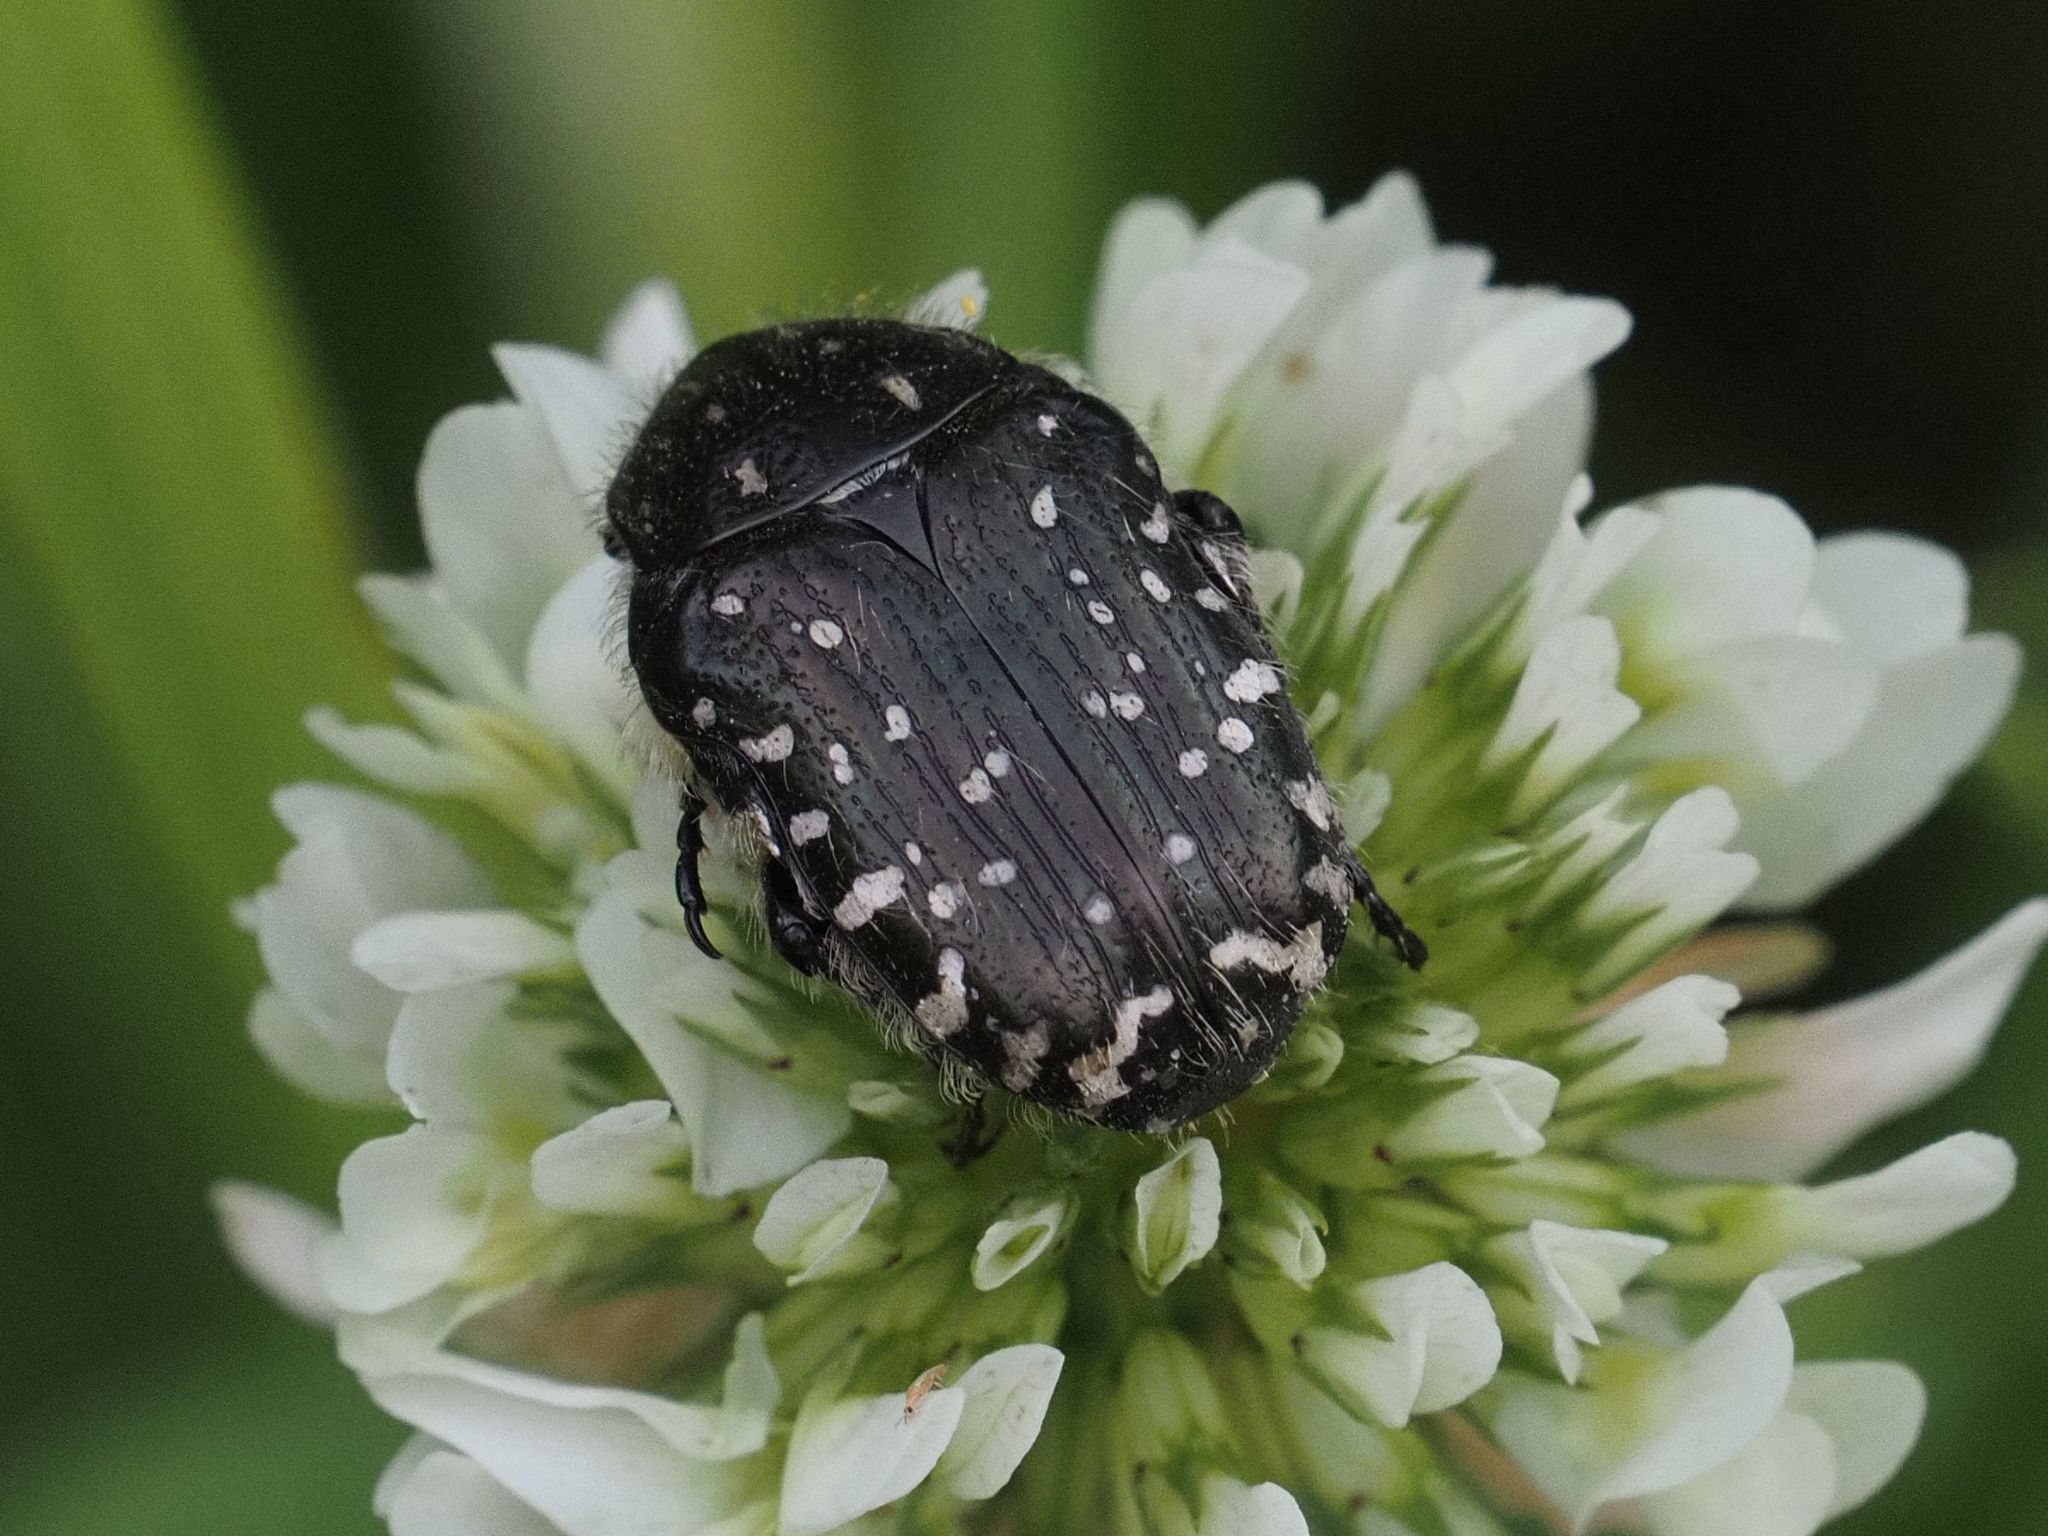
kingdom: Animalia
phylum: Arthropoda
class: Insecta
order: Coleoptera
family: Scarabaeidae
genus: Oxythyrea
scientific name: Oxythyrea funesta
